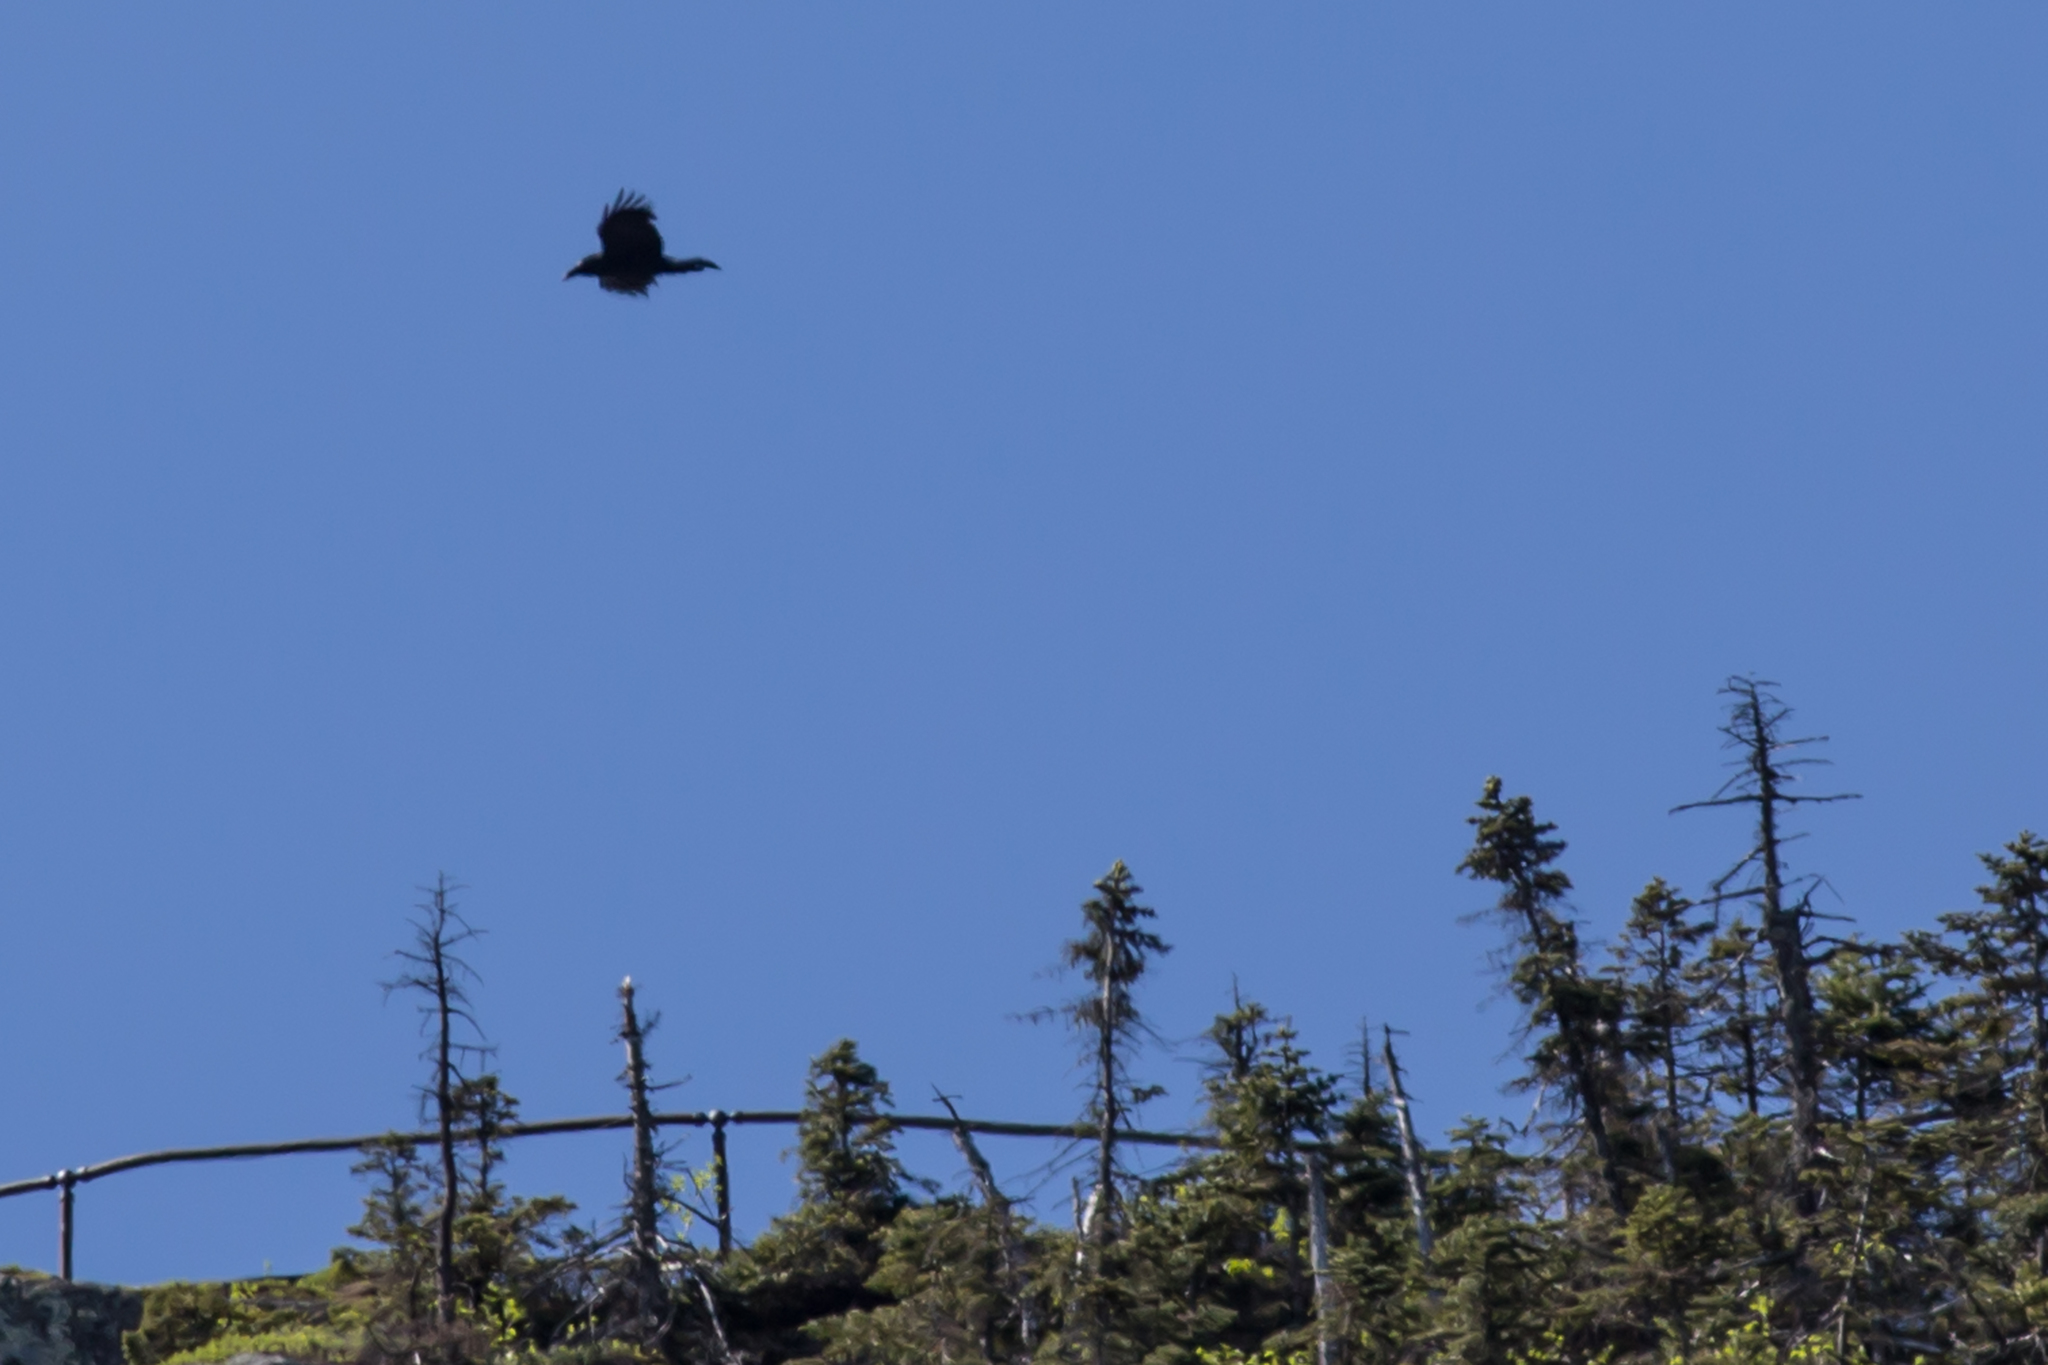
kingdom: Animalia
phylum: Chordata
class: Aves
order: Passeriformes
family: Corvidae
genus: Corvus
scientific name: Corvus corax
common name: Common raven
